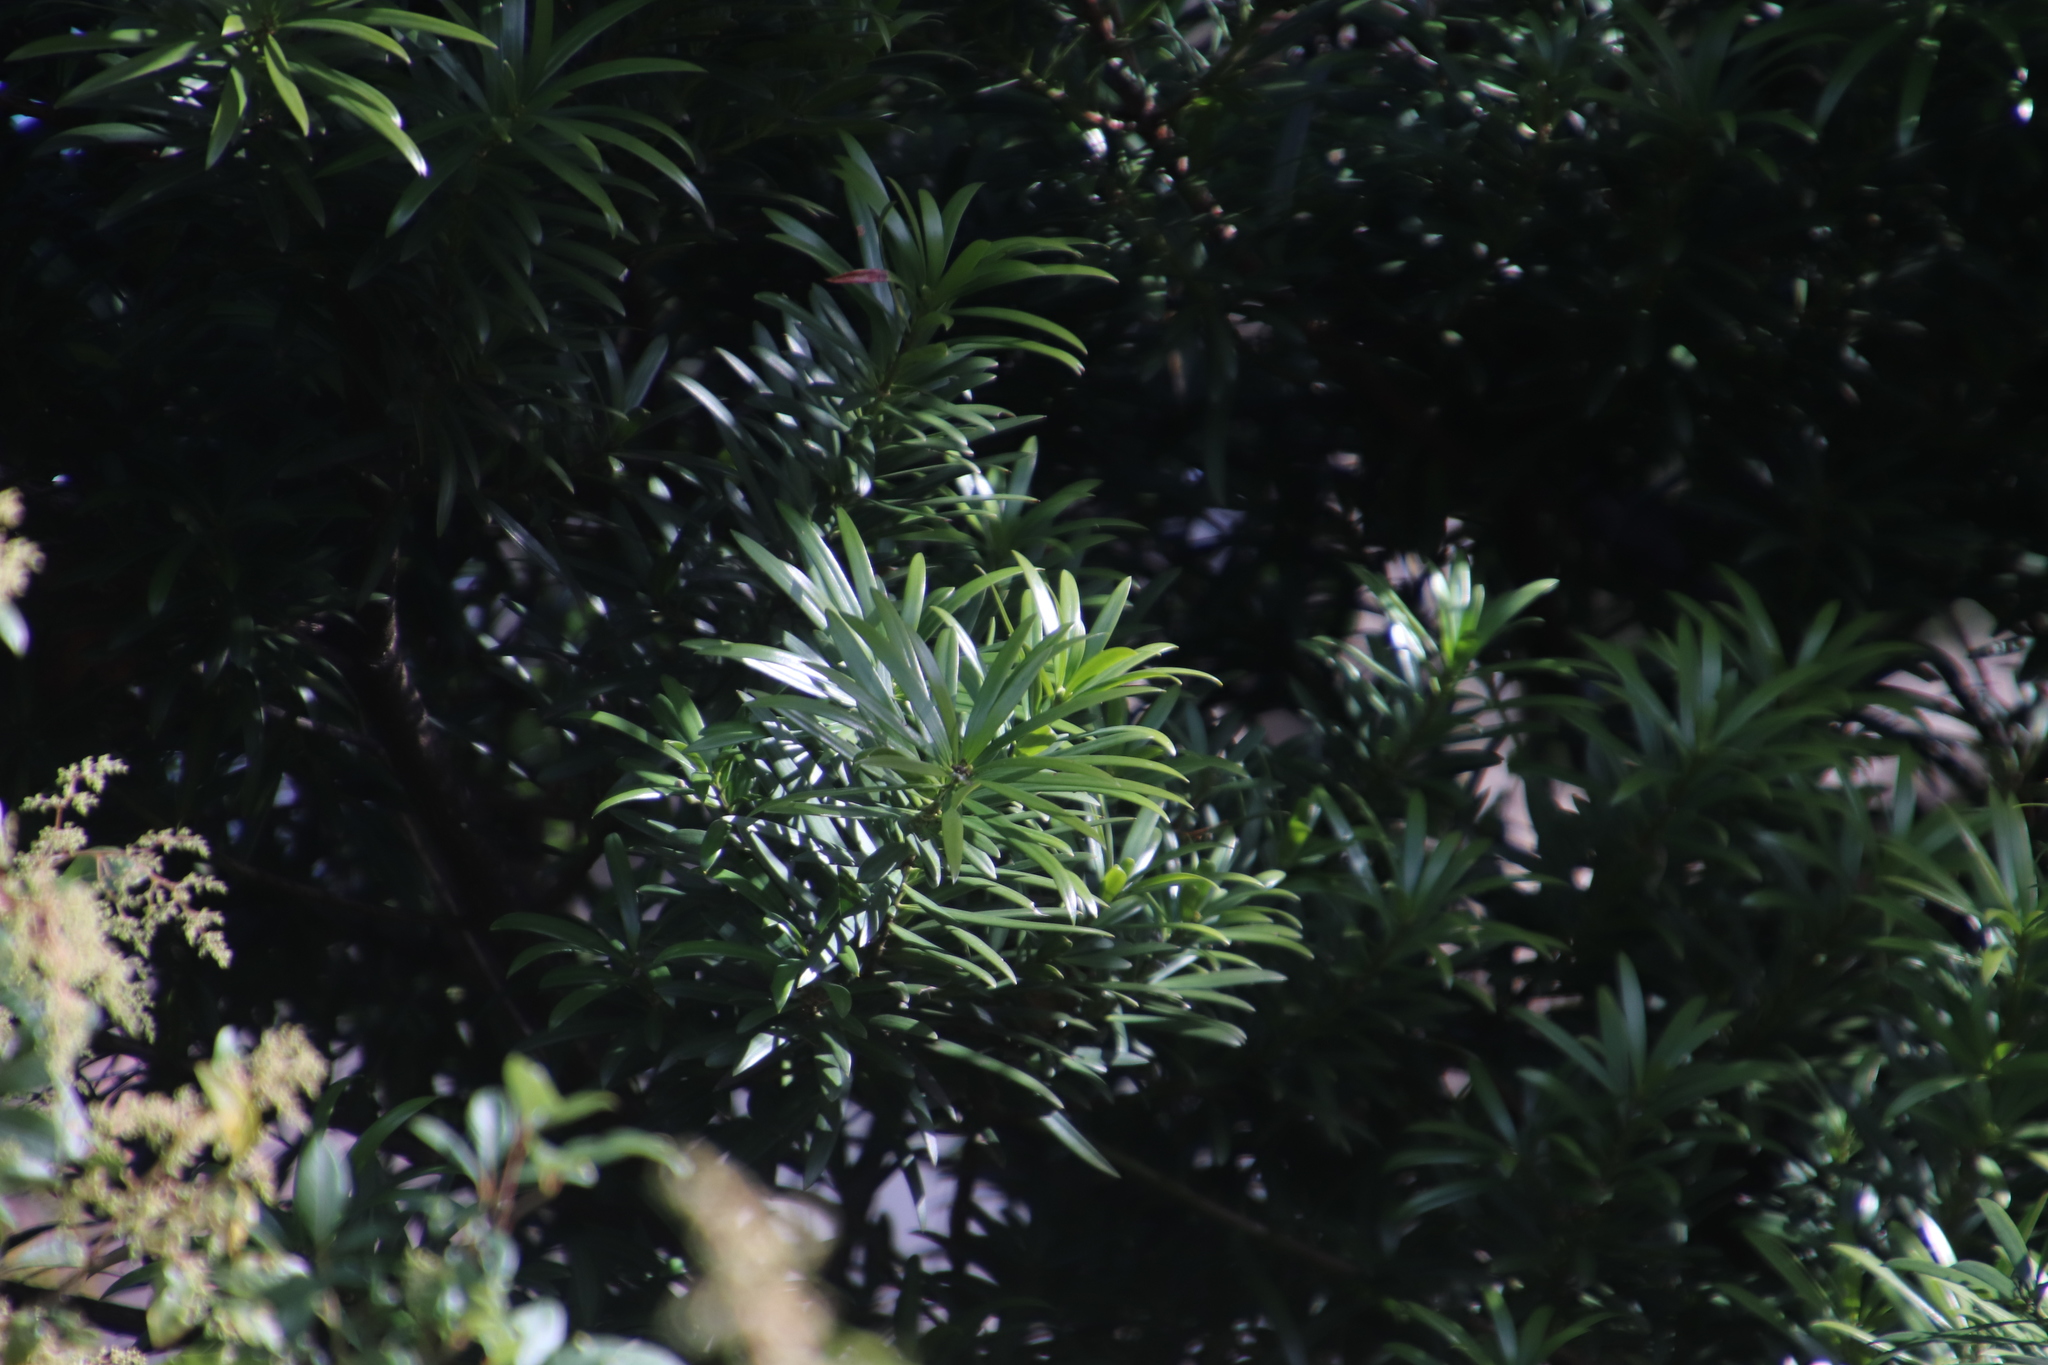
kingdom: Plantae
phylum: Tracheophyta
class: Pinopsida
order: Pinales
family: Podocarpaceae
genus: Podocarpus
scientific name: Podocarpus latifolius
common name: True yellowwood
